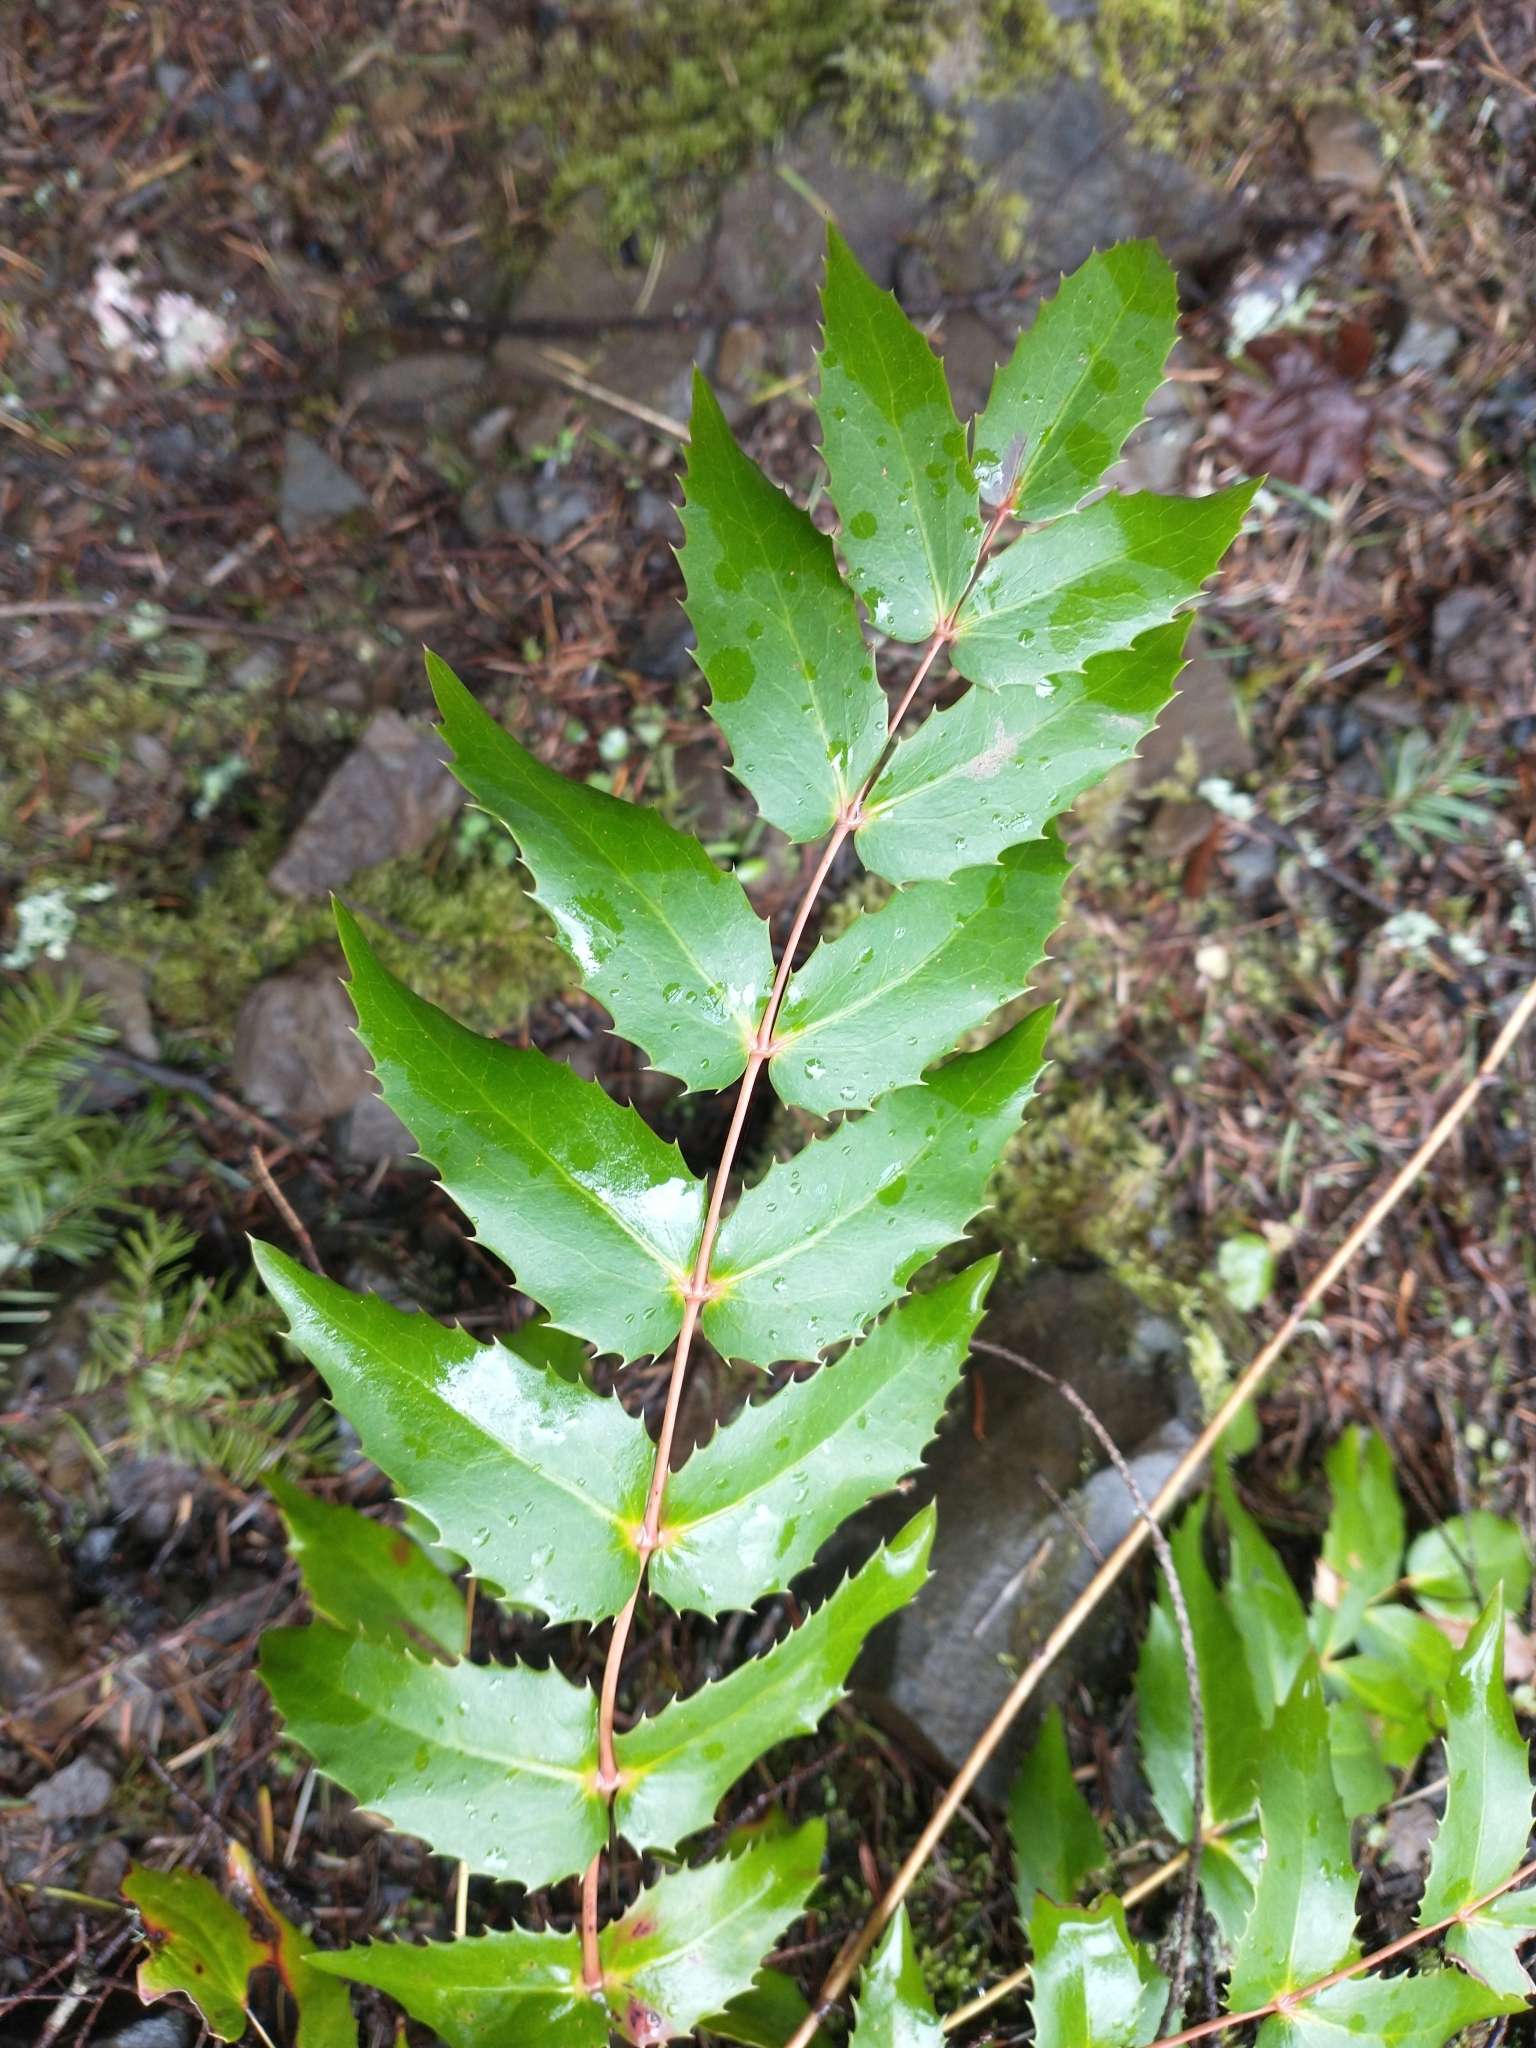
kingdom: Plantae
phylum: Tracheophyta
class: Magnoliopsida
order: Ranunculales
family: Berberidaceae
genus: Mahonia
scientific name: Mahonia nervosa
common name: Cascade oregon-grape
